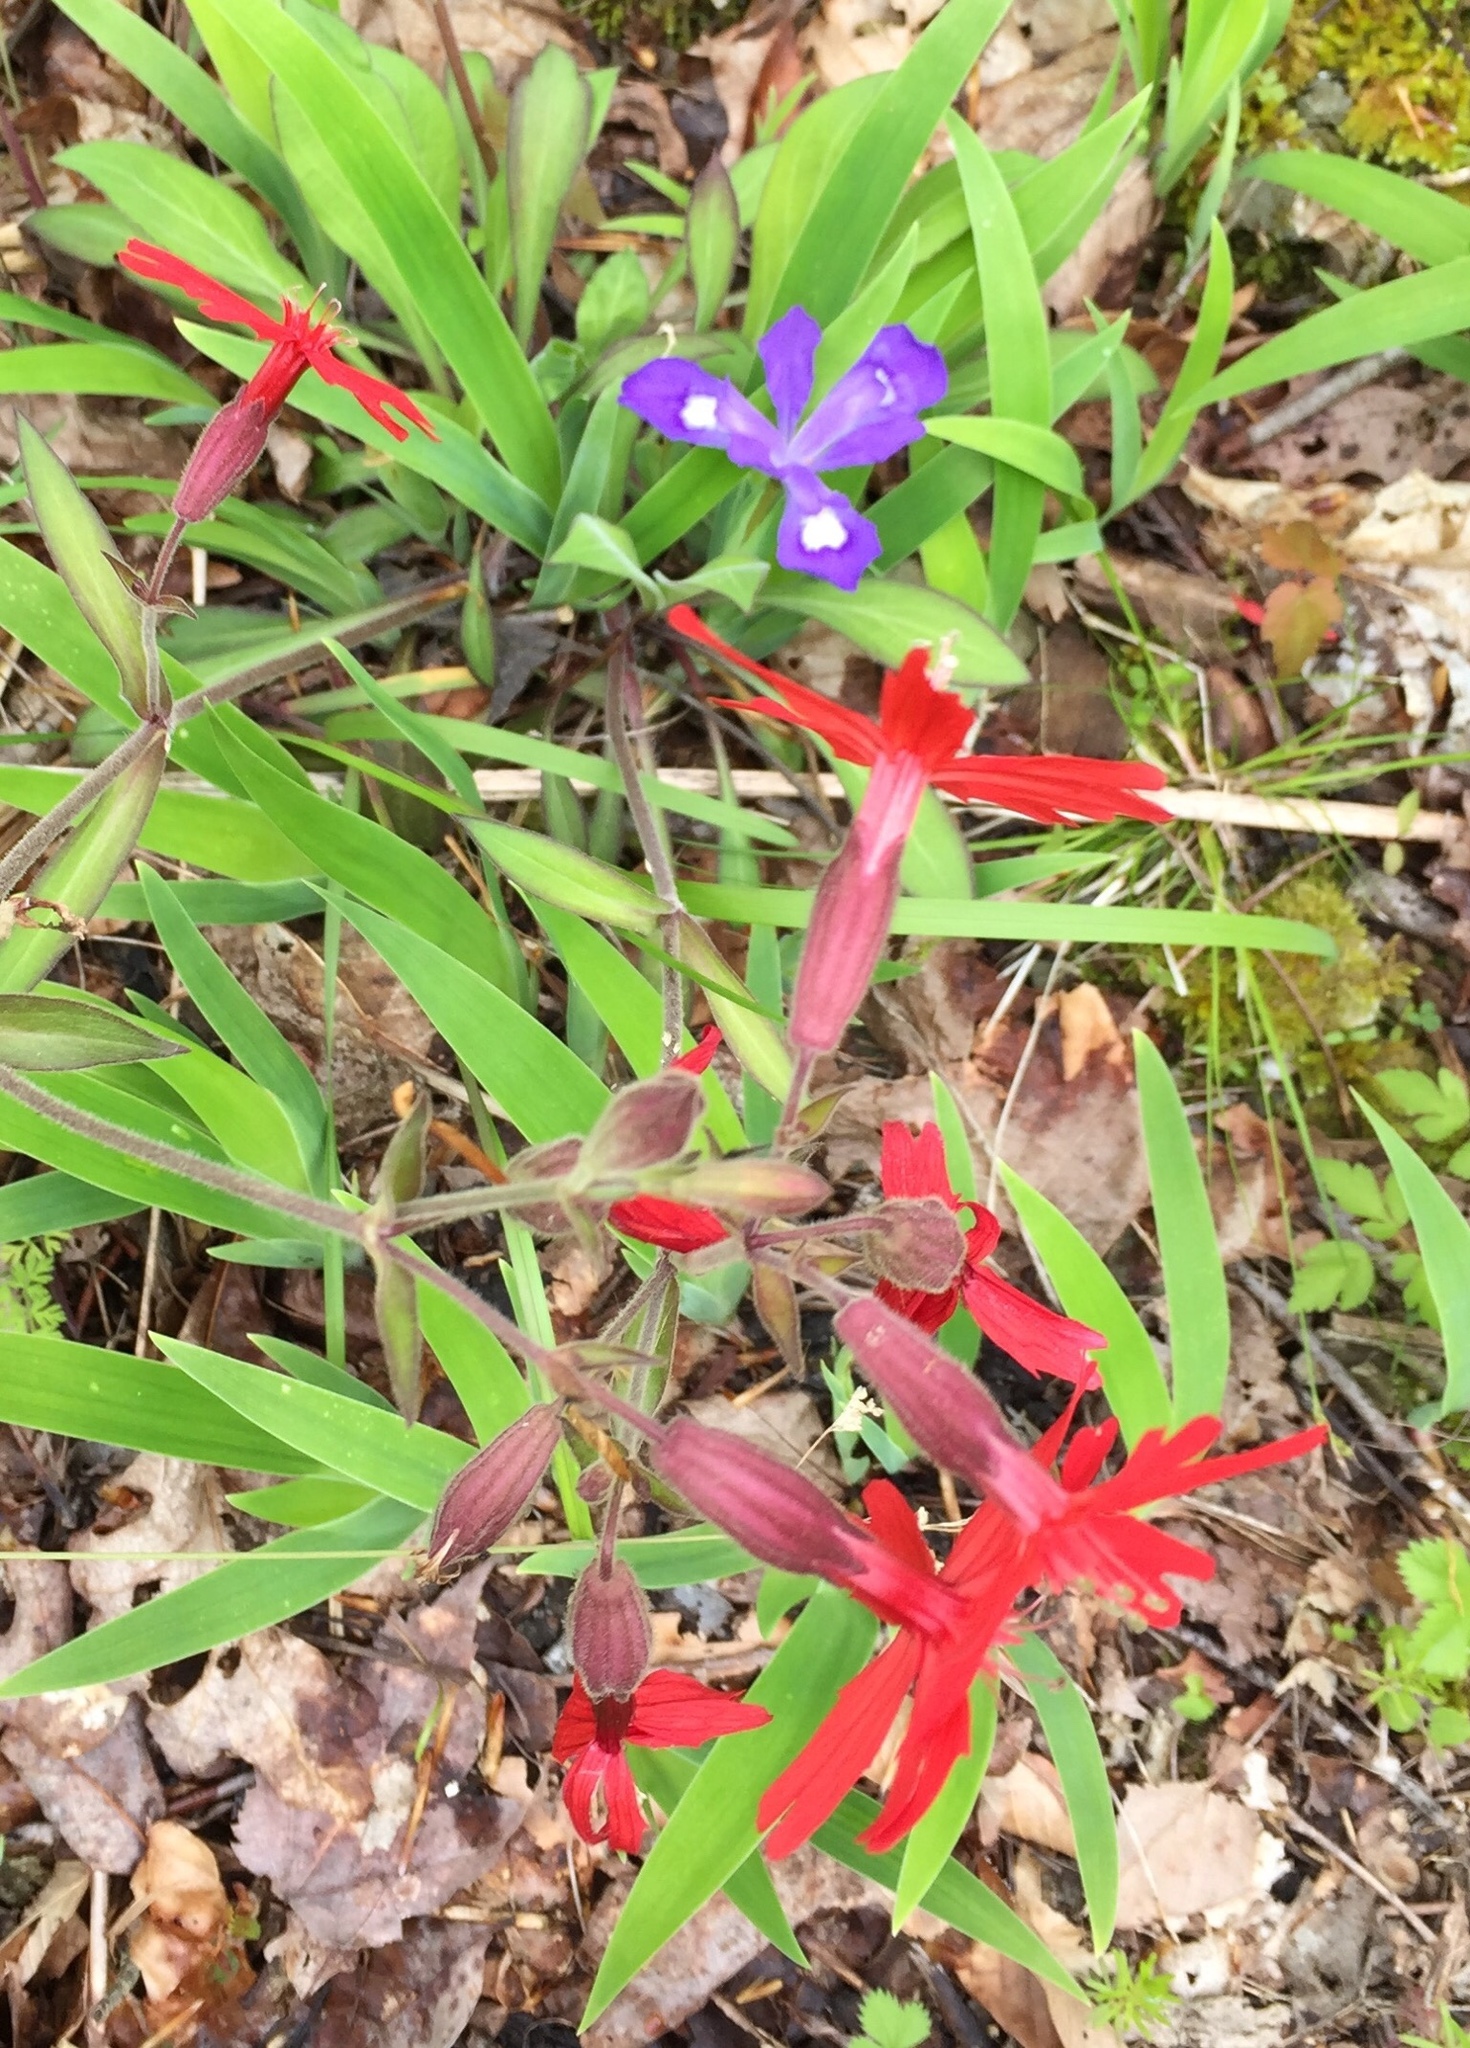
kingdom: Plantae
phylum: Tracheophyta
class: Magnoliopsida
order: Caryophyllales
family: Caryophyllaceae
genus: Silene
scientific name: Silene virginica
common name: Fire-pink
